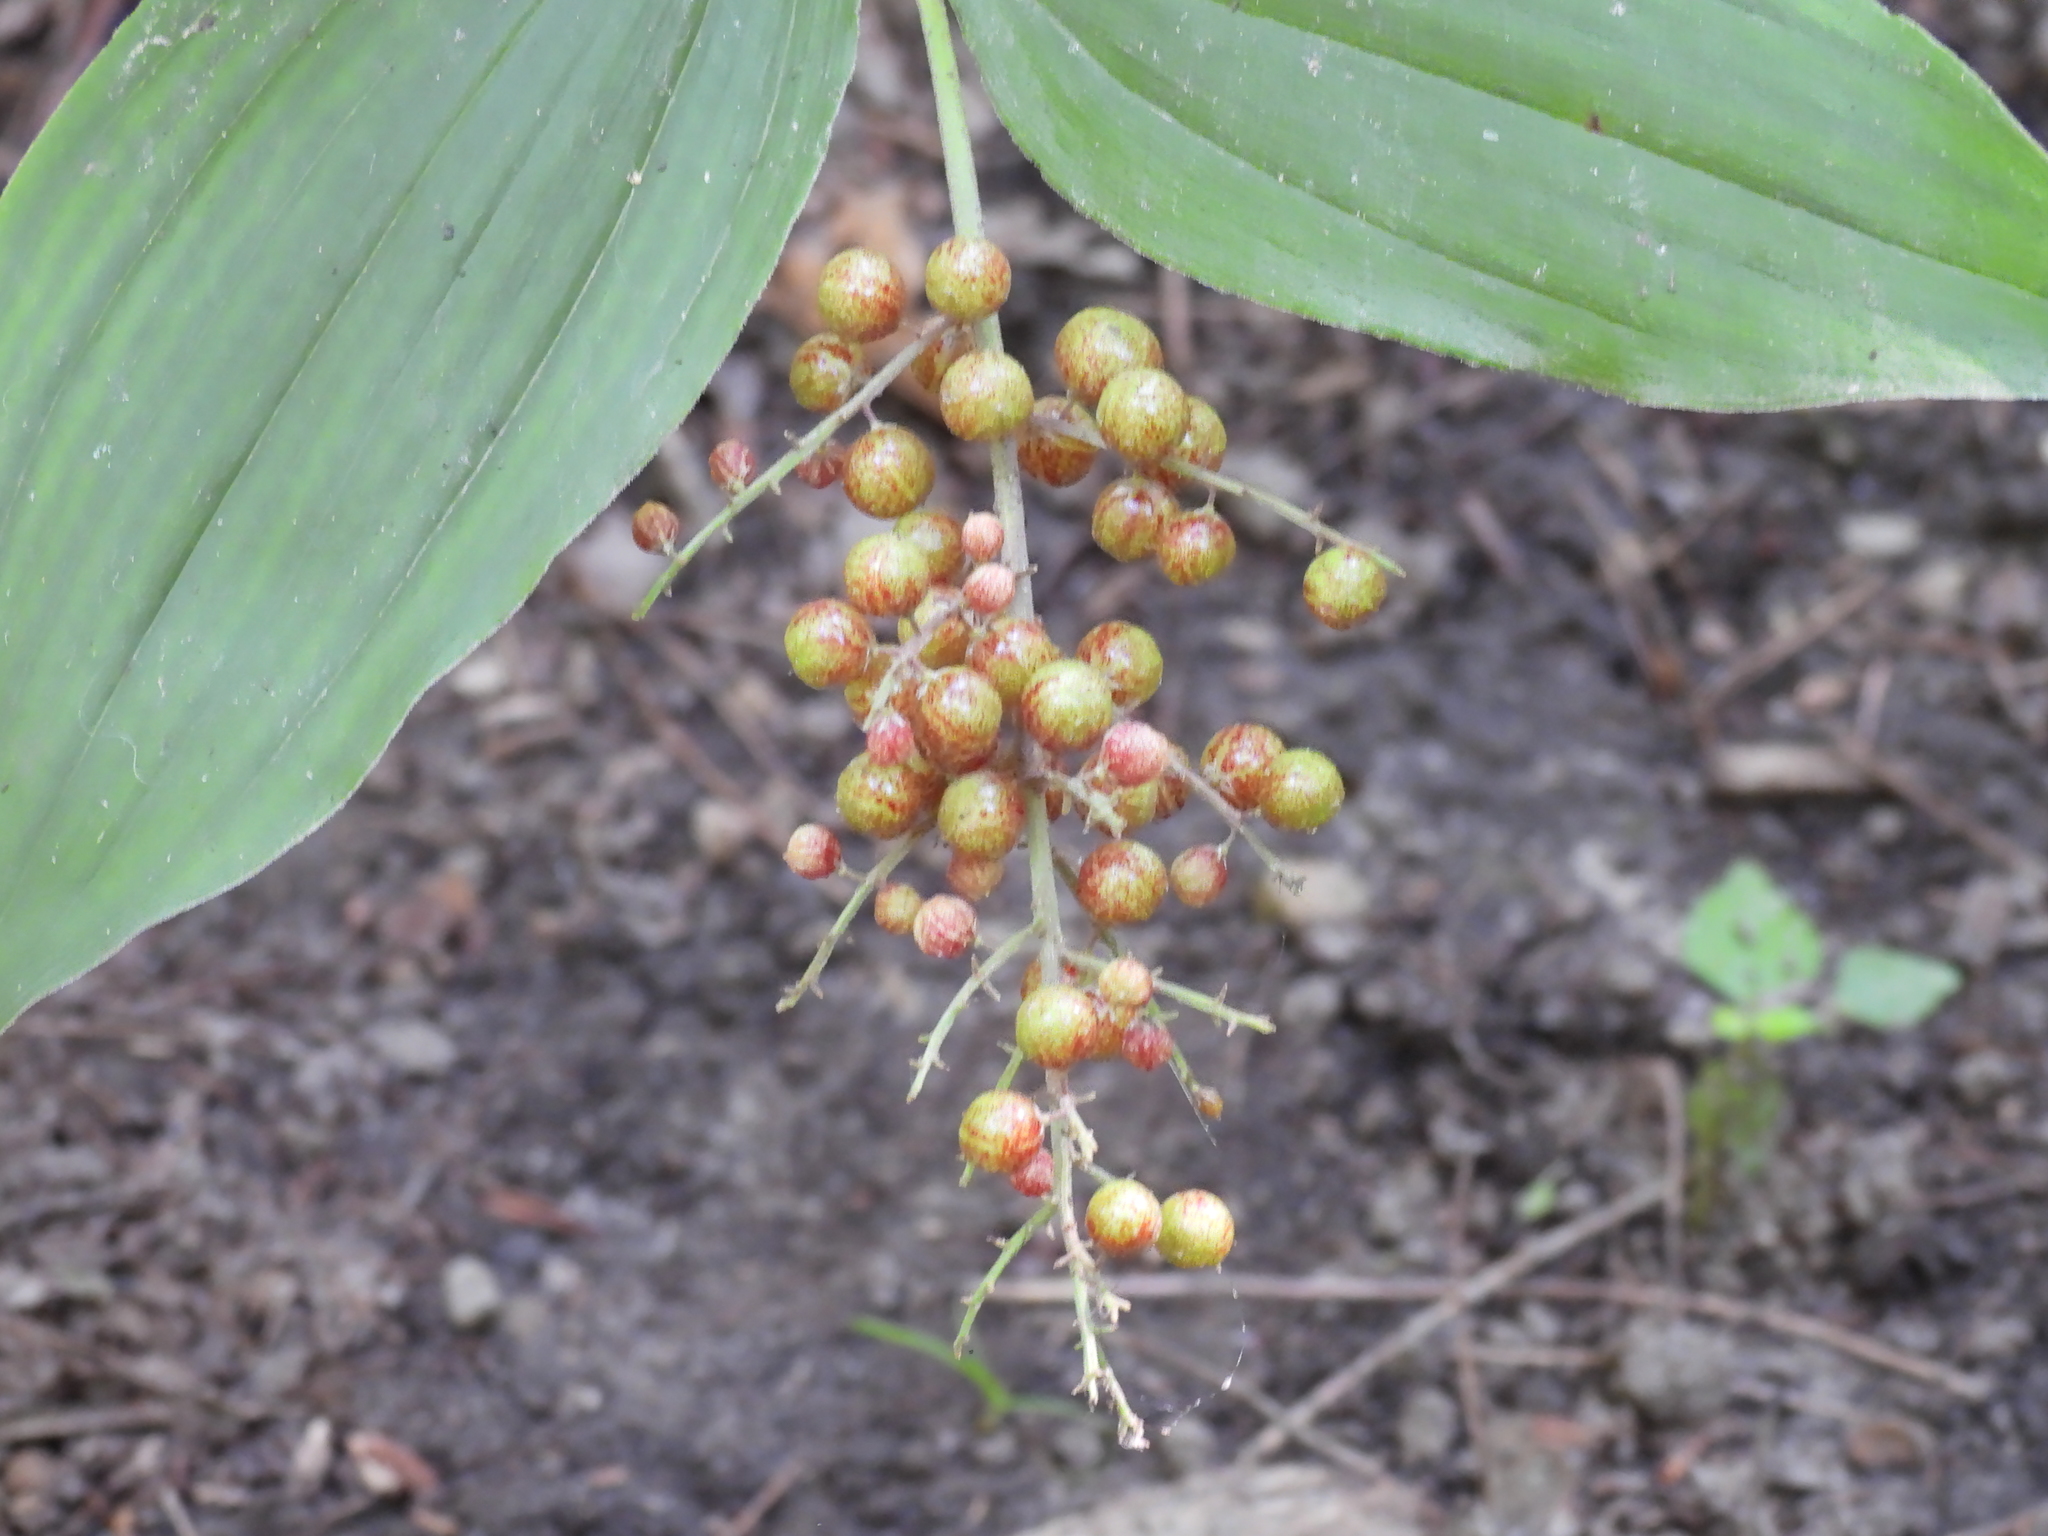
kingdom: Plantae
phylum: Tracheophyta
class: Liliopsida
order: Asparagales
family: Asparagaceae
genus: Maianthemum
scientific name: Maianthemum racemosum
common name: False spikenard
